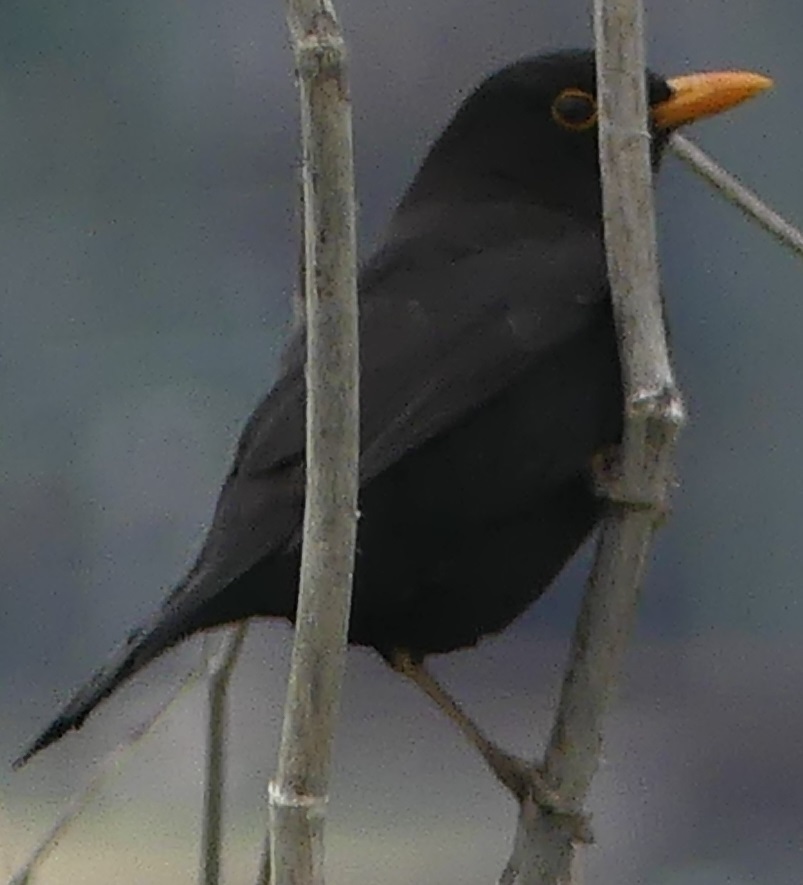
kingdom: Animalia
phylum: Chordata
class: Aves
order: Passeriformes
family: Turdidae
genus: Turdus
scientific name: Turdus merula
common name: Common blackbird
